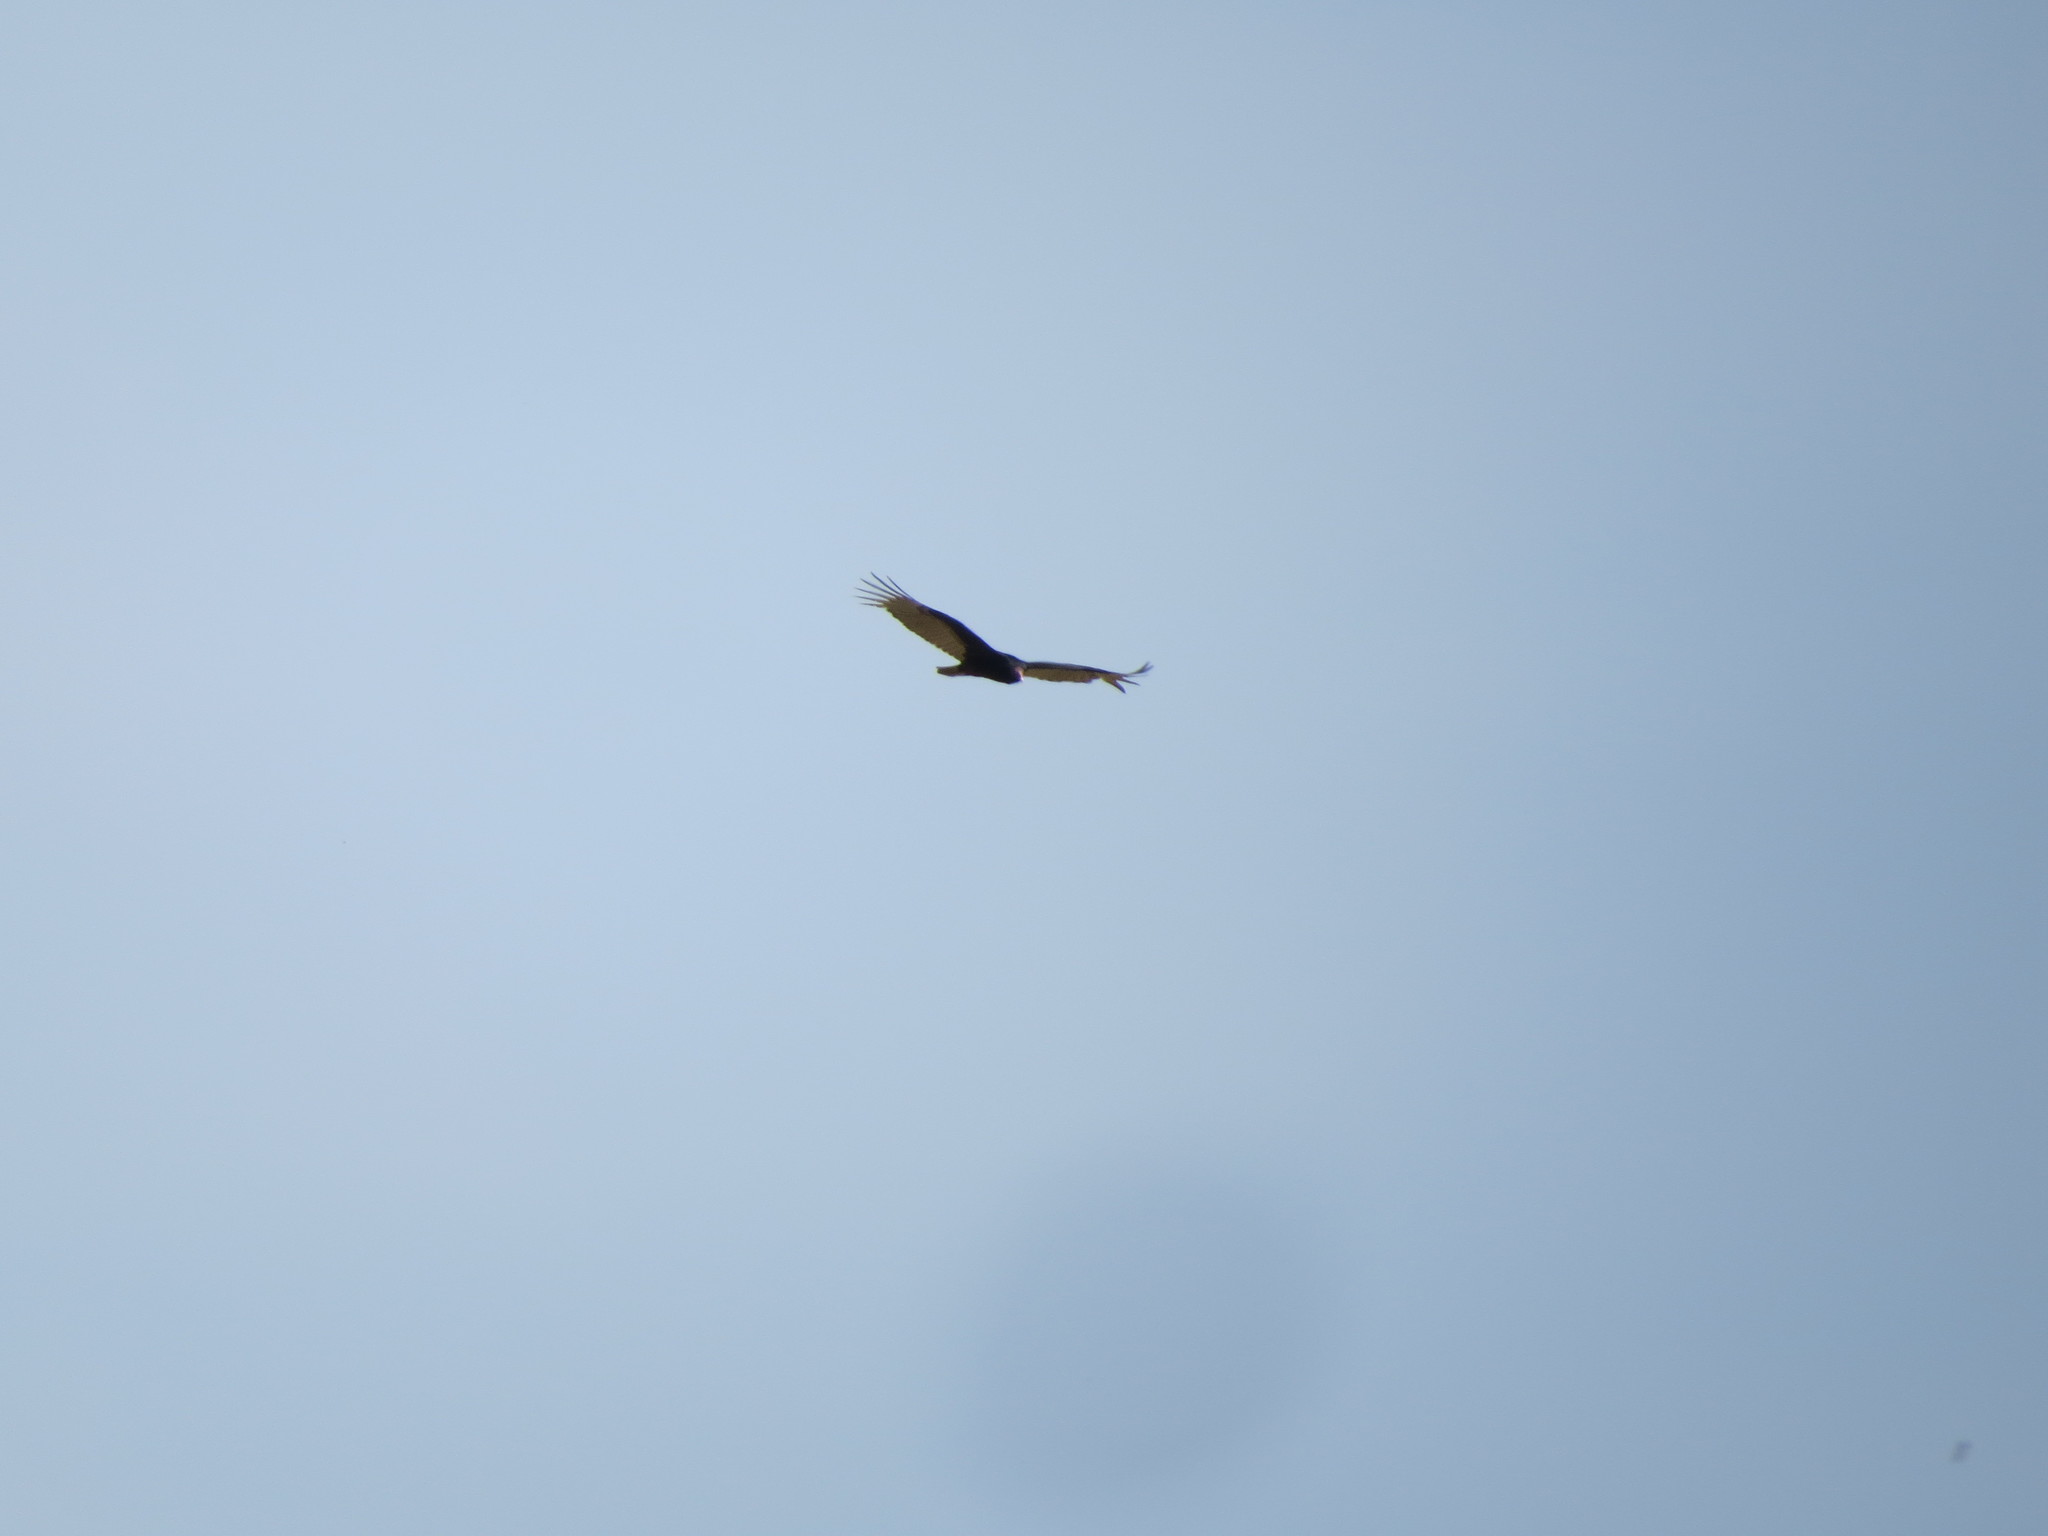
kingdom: Animalia
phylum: Chordata
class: Aves
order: Accipitriformes
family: Cathartidae
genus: Cathartes
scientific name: Cathartes aura
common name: Turkey vulture
